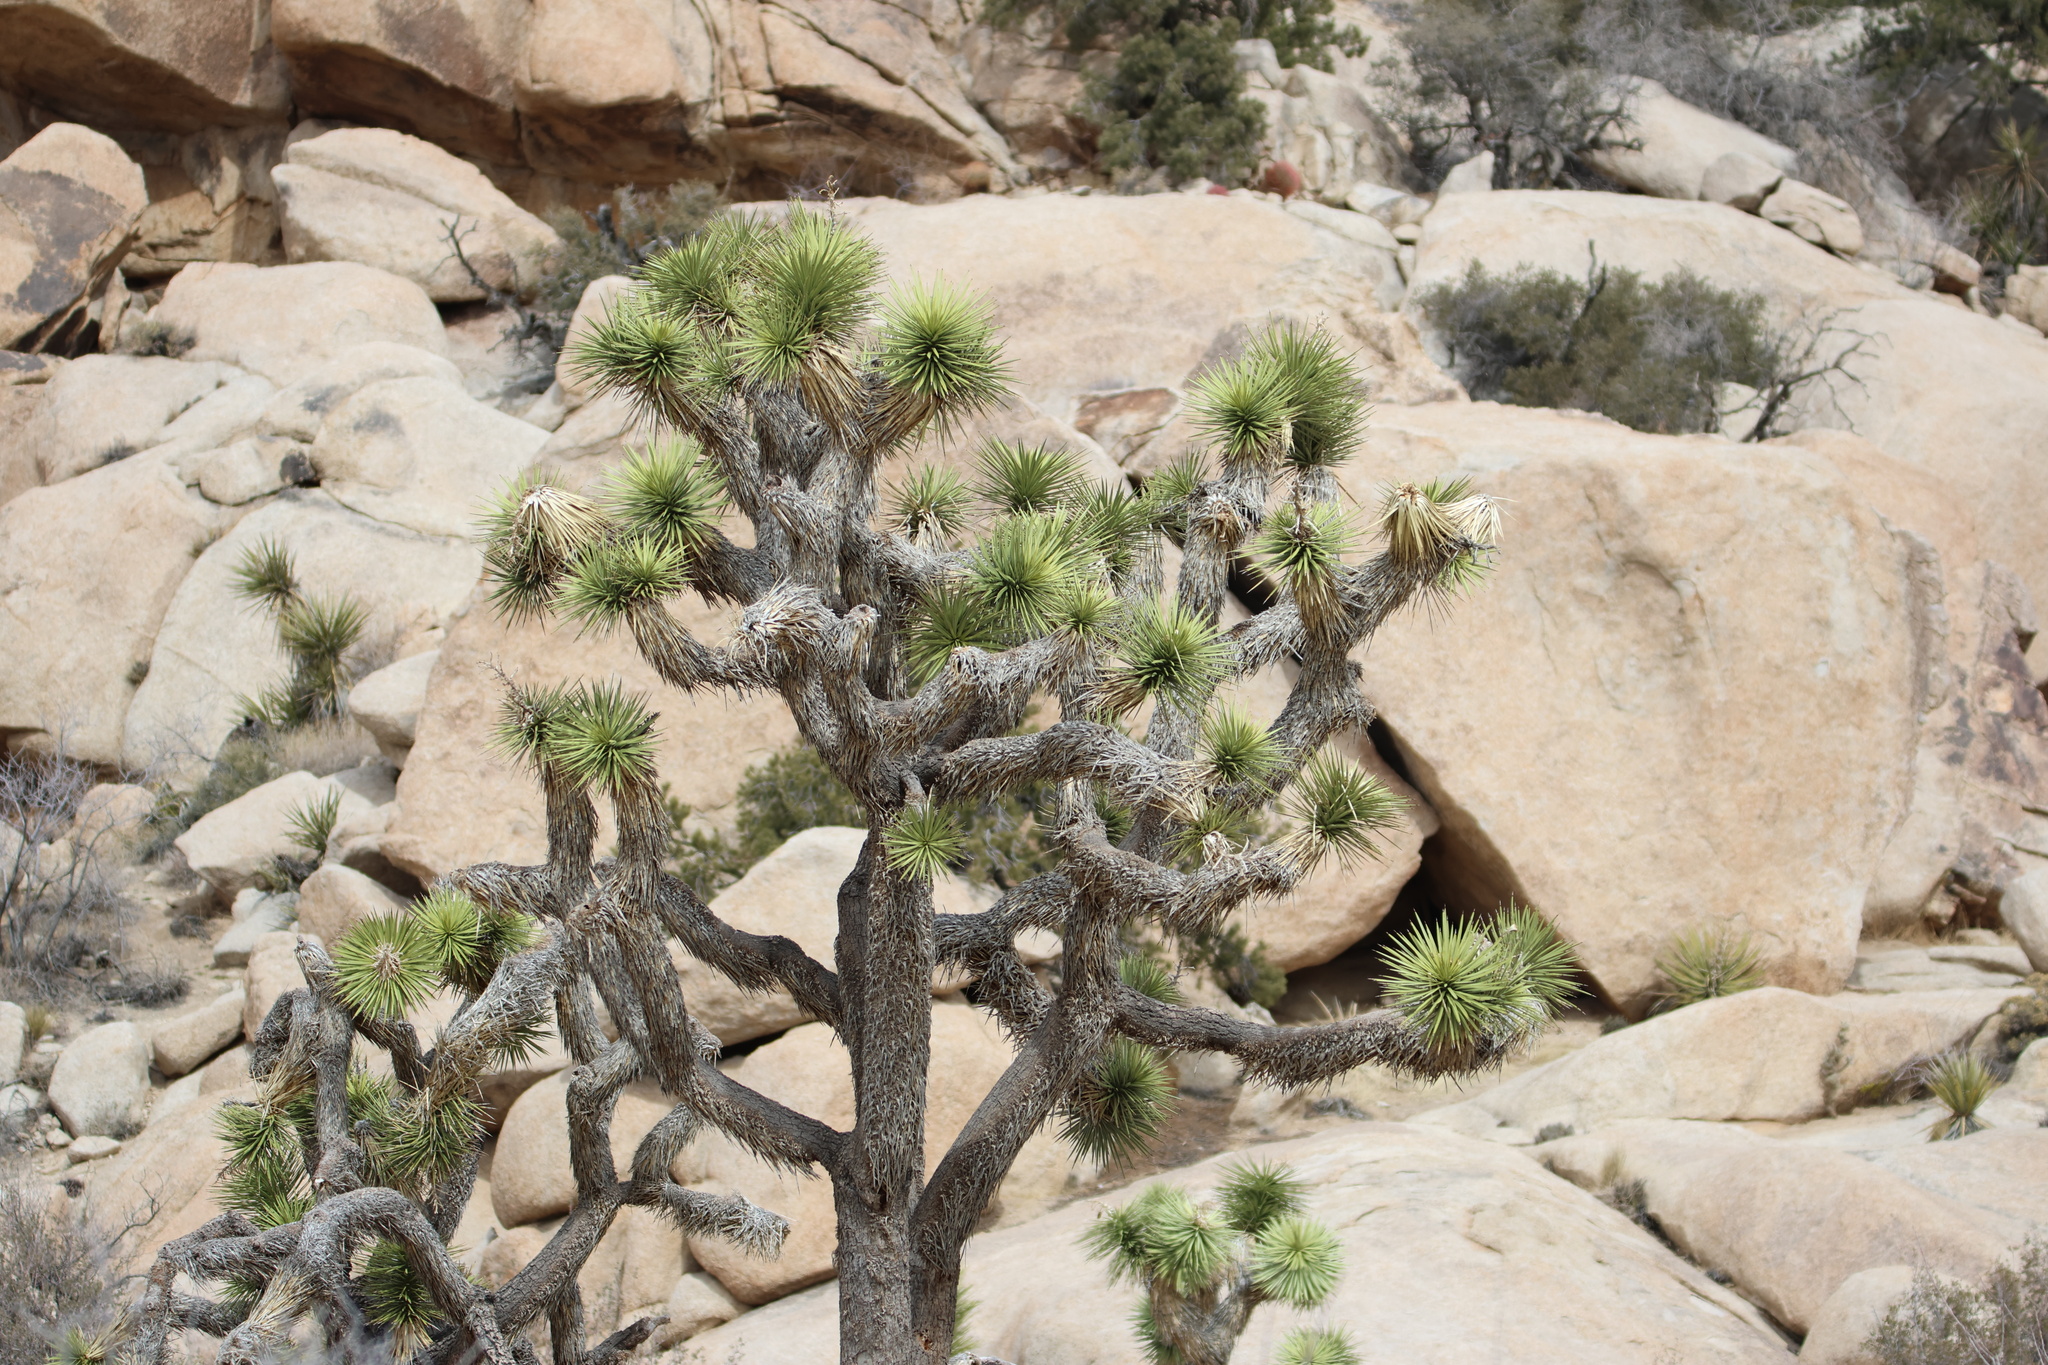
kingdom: Plantae
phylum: Tracheophyta
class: Liliopsida
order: Asparagales
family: Asparagaceae
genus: Yucca
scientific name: Yucca brevifolia
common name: Joshua tree
